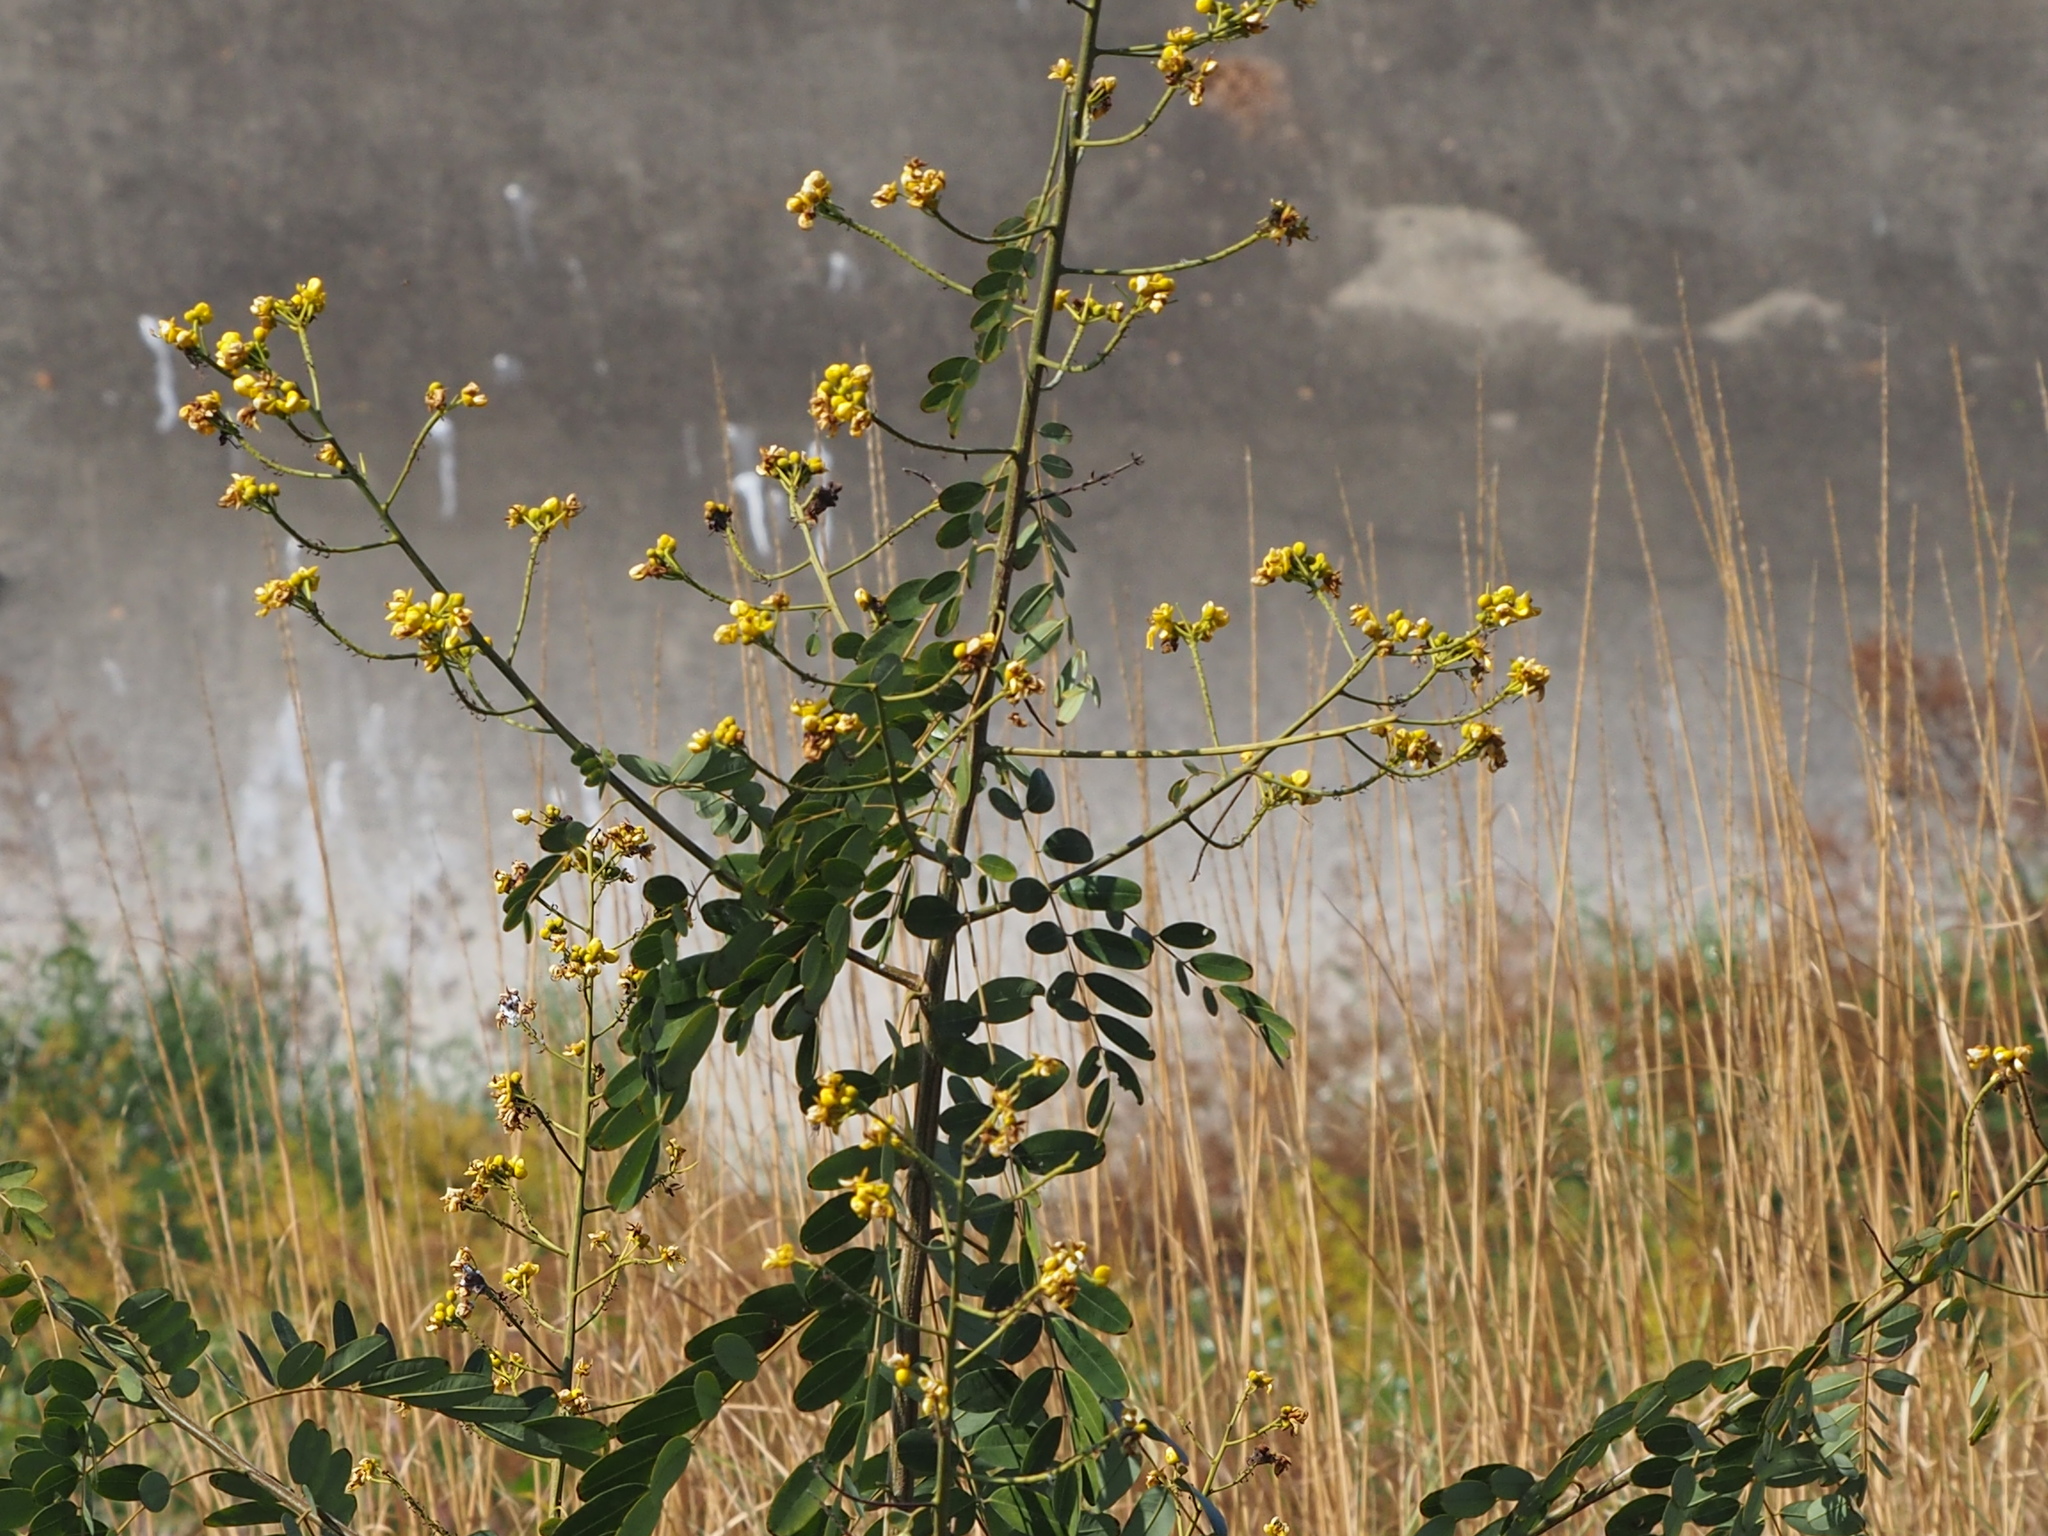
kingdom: Plantae
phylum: Tracheophyta
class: Magnoliopsida
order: Fabales
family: Fabaceae
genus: Senna
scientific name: Senna siamea
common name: Siamese cassia
